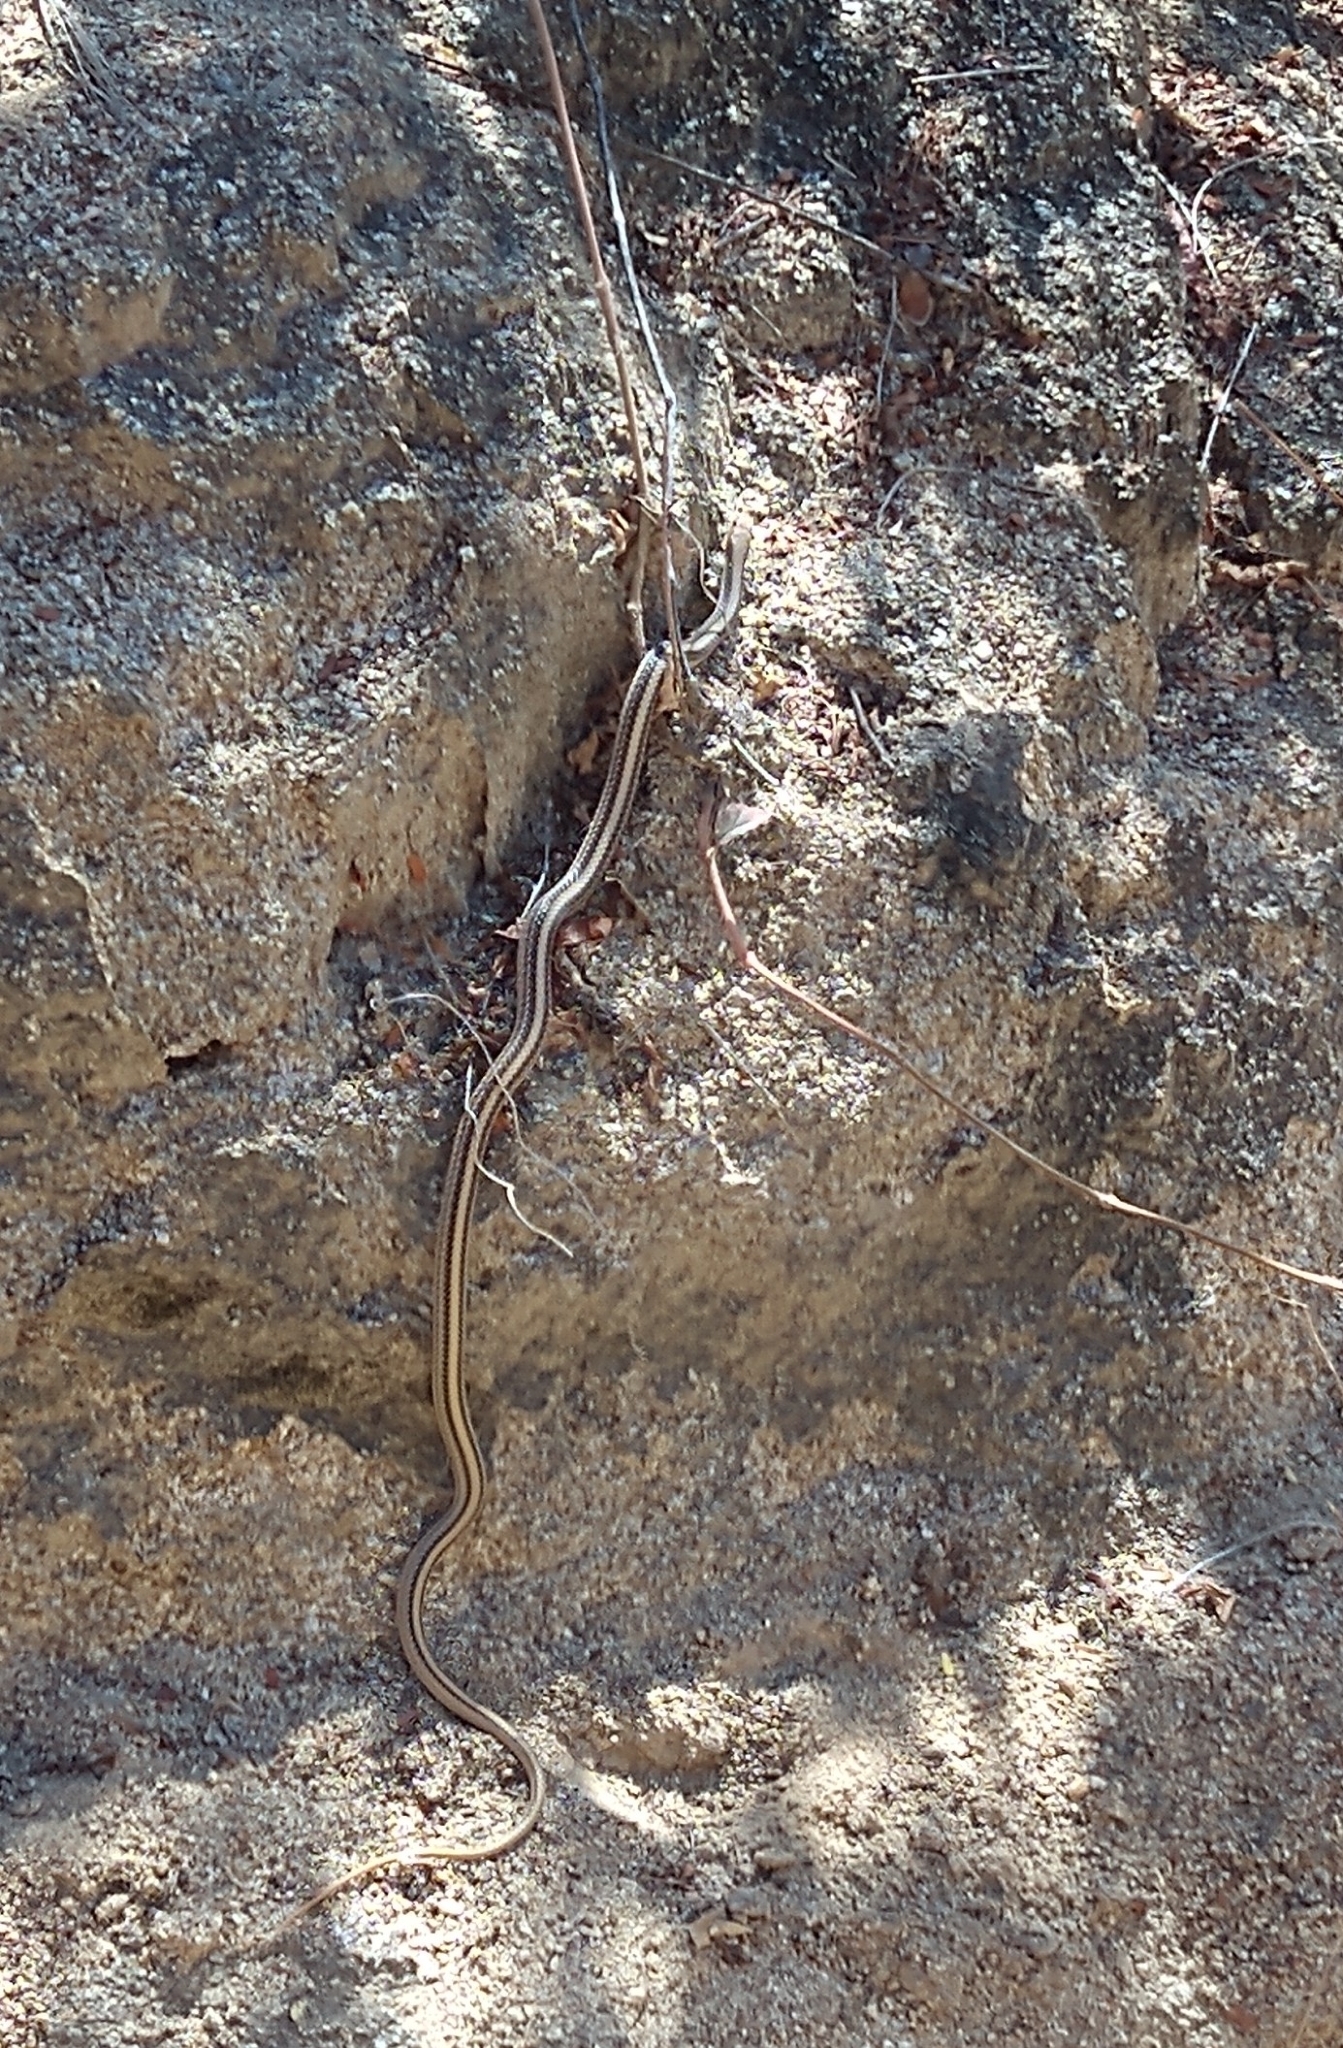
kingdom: Animalia
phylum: Chordata
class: Squamata
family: Colubridae
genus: Salvadora
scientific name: Salvadora hexalepis
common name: Western patchnose snake
